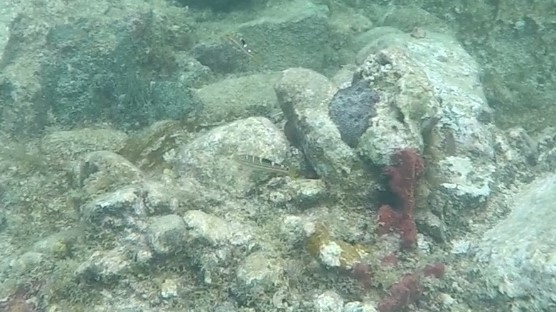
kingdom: Animalia
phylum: Chordata
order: Perciformes
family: Labridae
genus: Halichoeres
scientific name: Halichoeres radiatus
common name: Puddingwife
